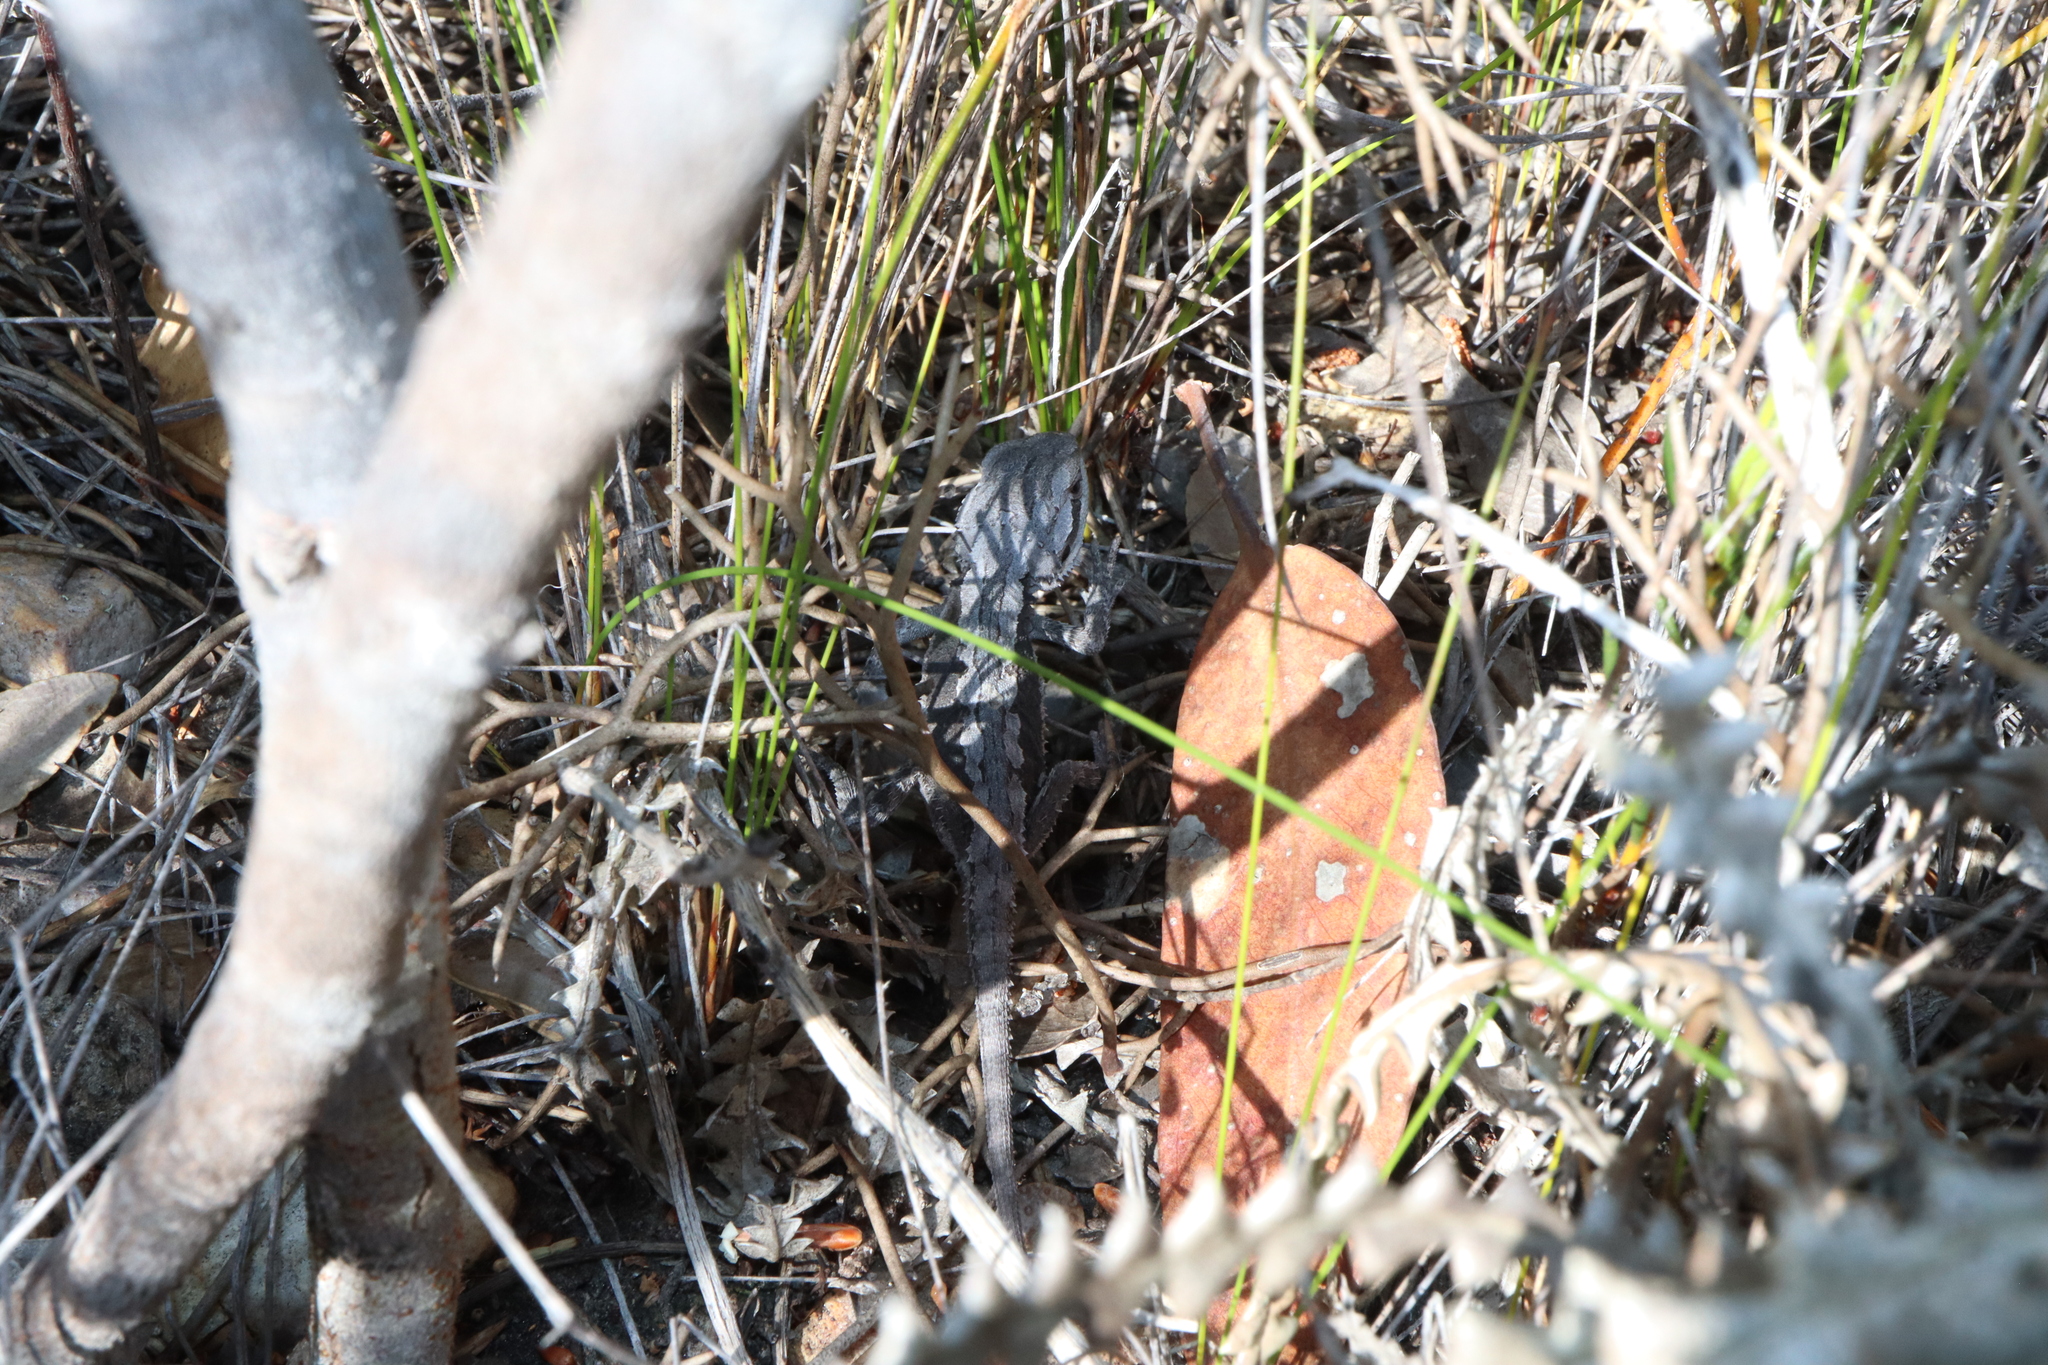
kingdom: Animalia
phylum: Chordata
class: Squamata
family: Agamidae
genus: Pogona
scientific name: Pogona minor
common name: Dwarf bearded dragon
